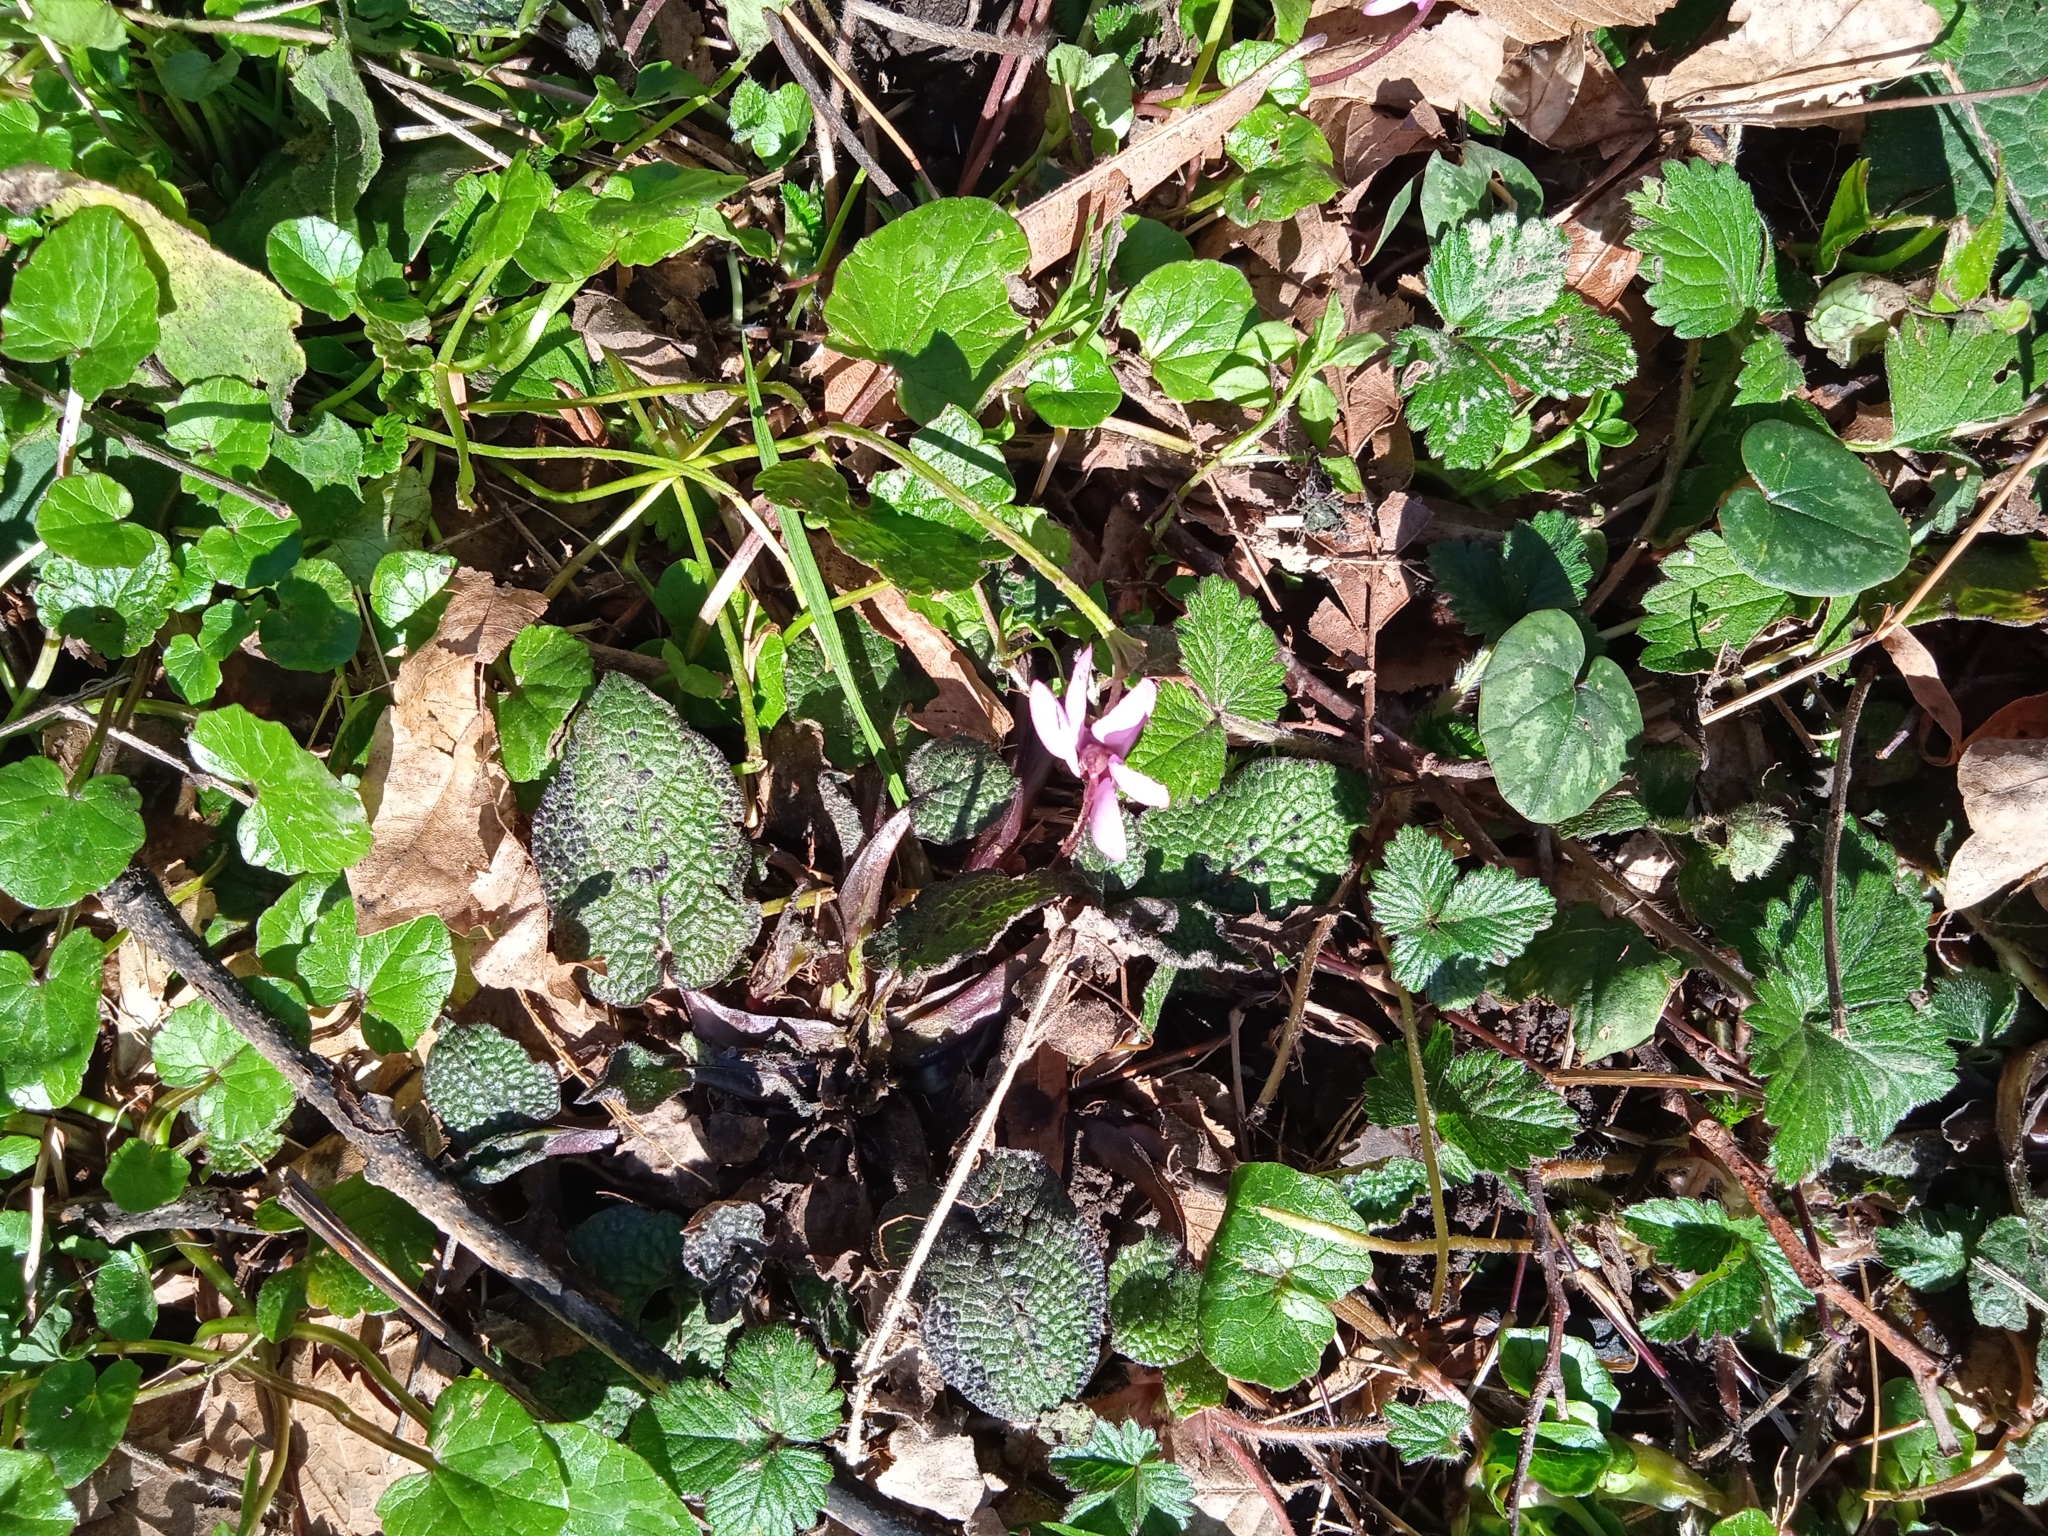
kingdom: Plantae
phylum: Tracheophyta
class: Magnoliopsida
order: Ericales
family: Primulaceae
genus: Cyclamen
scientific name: Cyclamen coum
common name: Eastern sowbread
